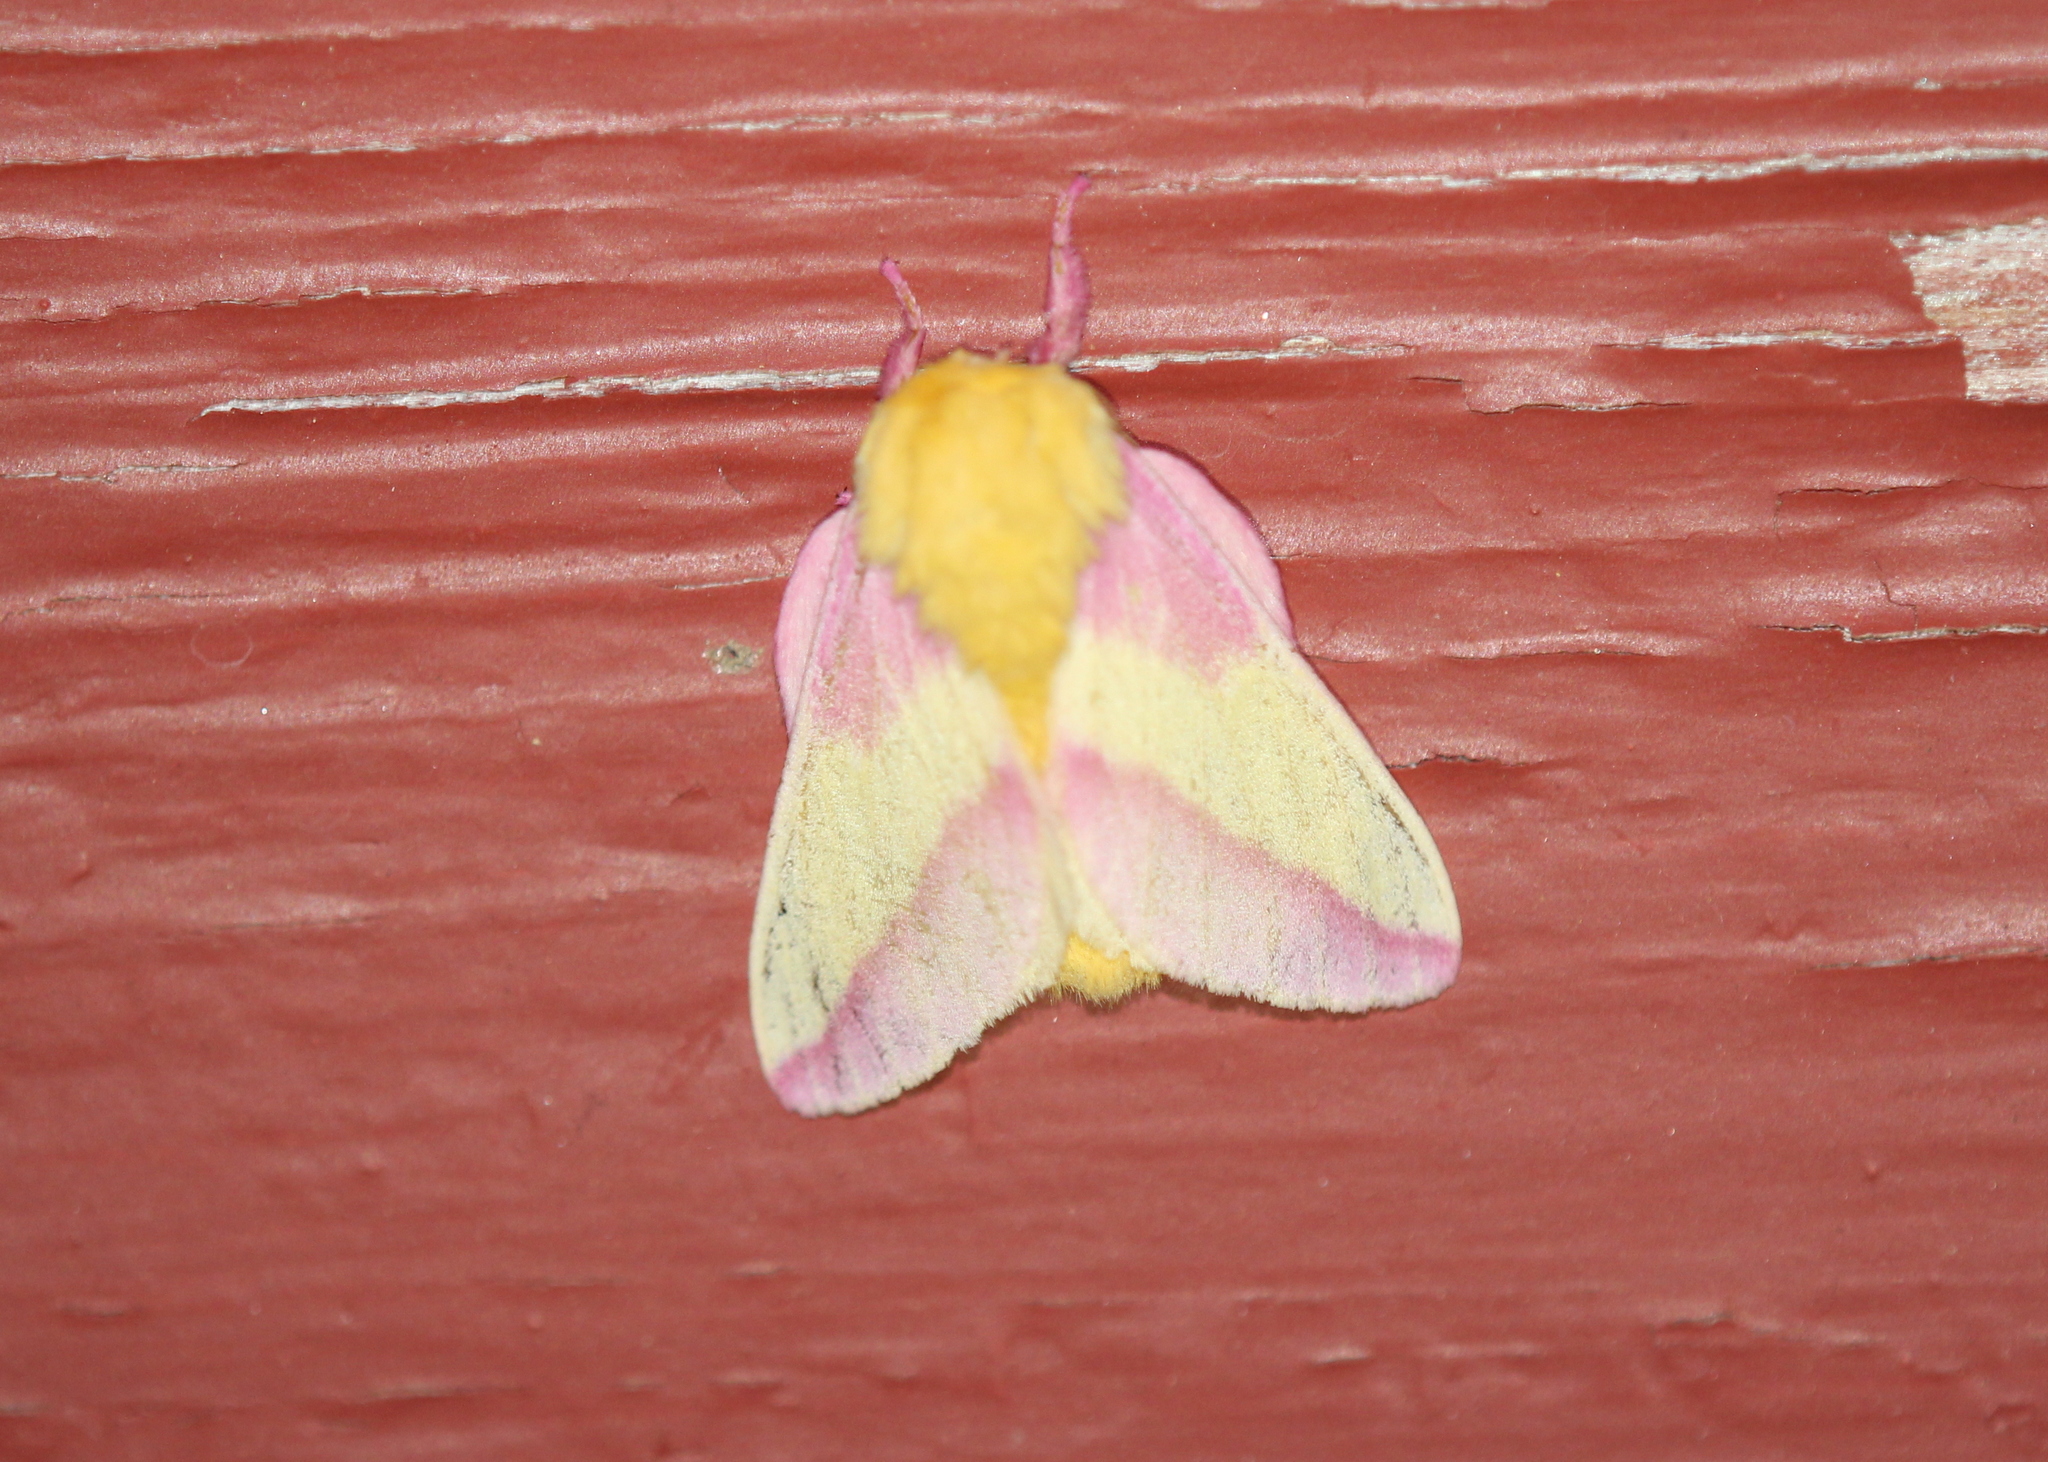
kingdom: Animalia
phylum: Arthropoda
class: Insecta
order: Lepidoptera
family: Saturniidae
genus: Dryocampa
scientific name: Dryocampa rubicunda
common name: Rosy maple moth
